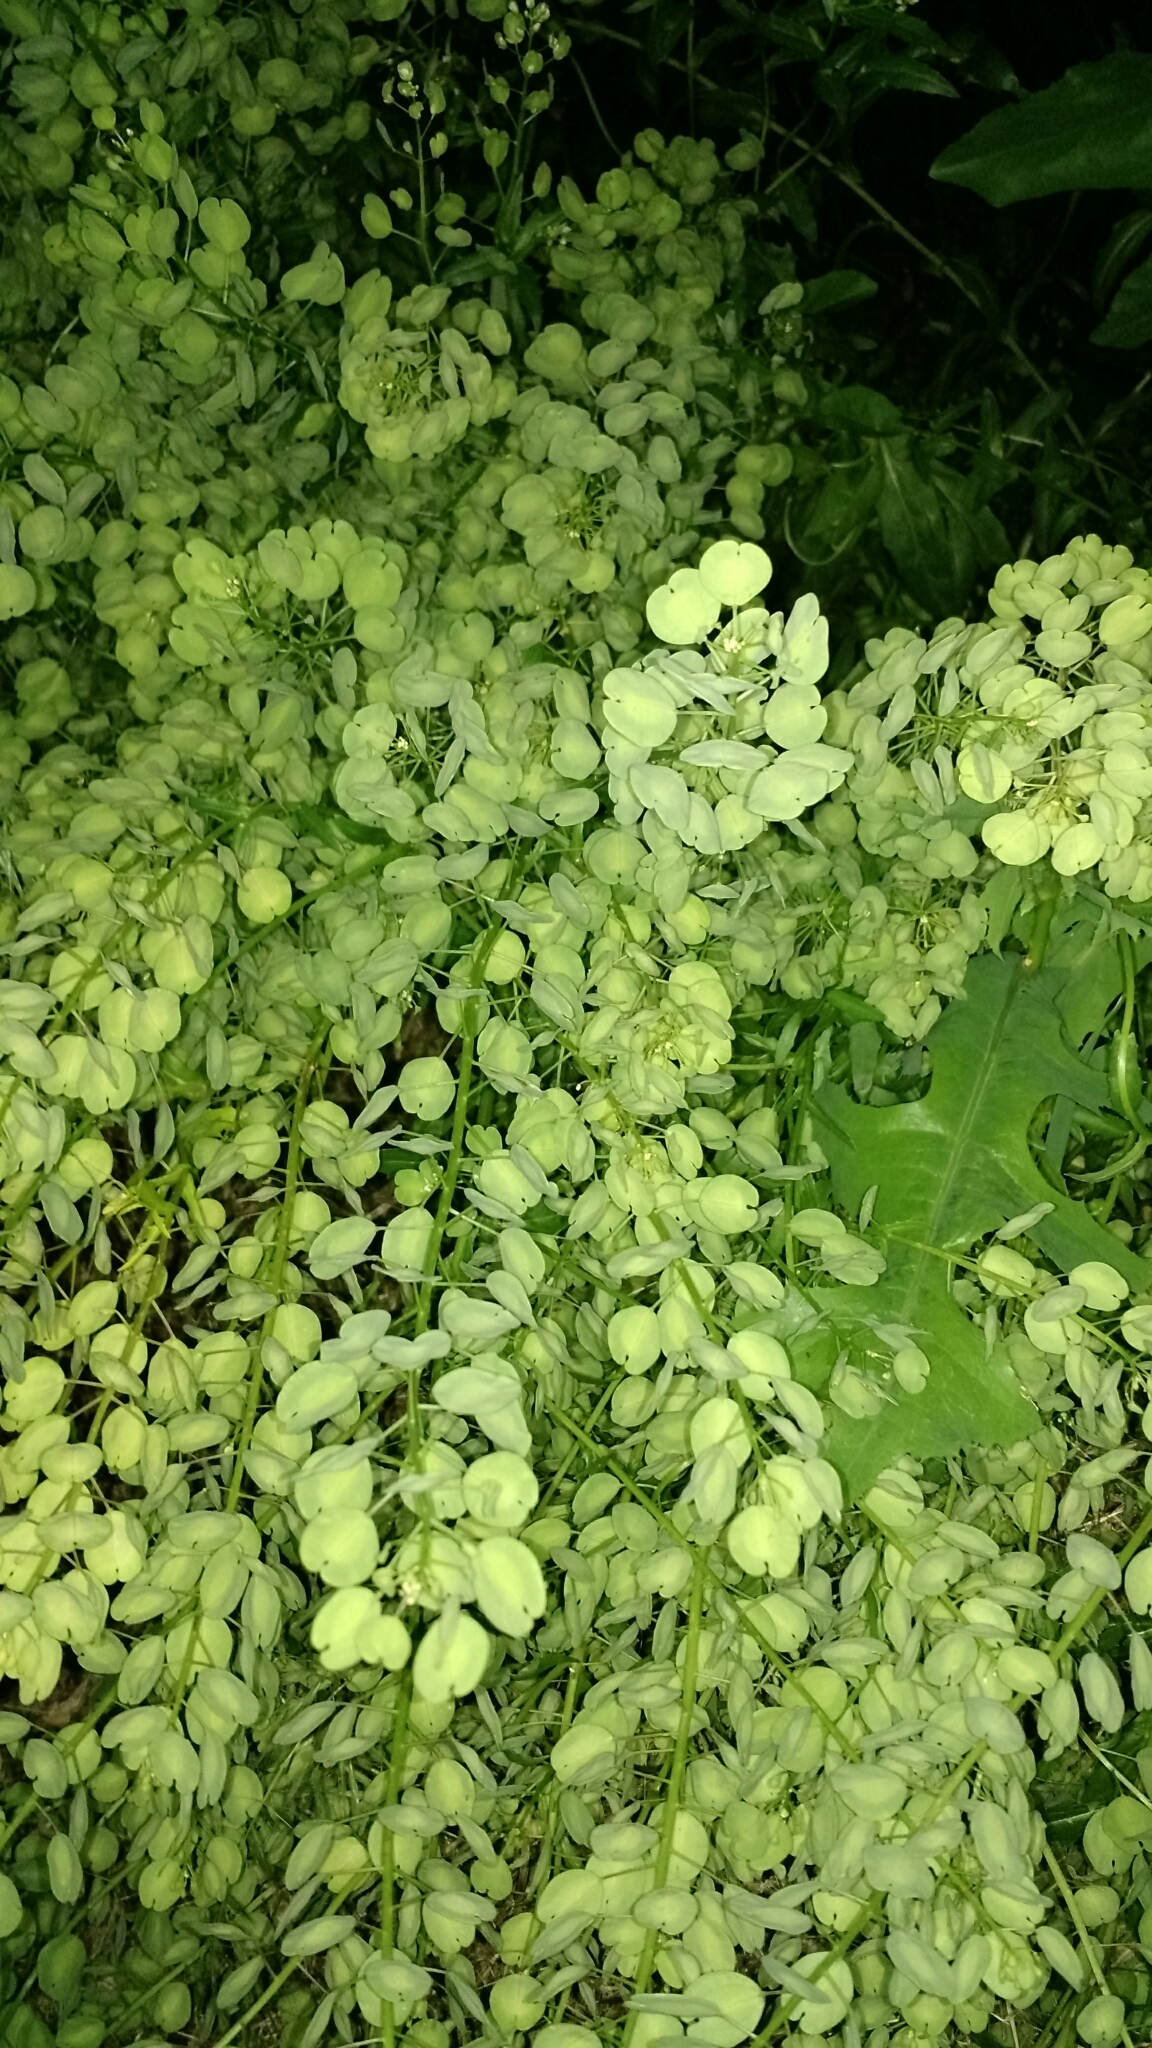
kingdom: Plantae
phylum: Tracheophyta
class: Magnoliopsida
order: Brassicales
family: Brassicaceae
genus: Thlaspi
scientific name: Thlaspi arvense
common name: Field pennycress
